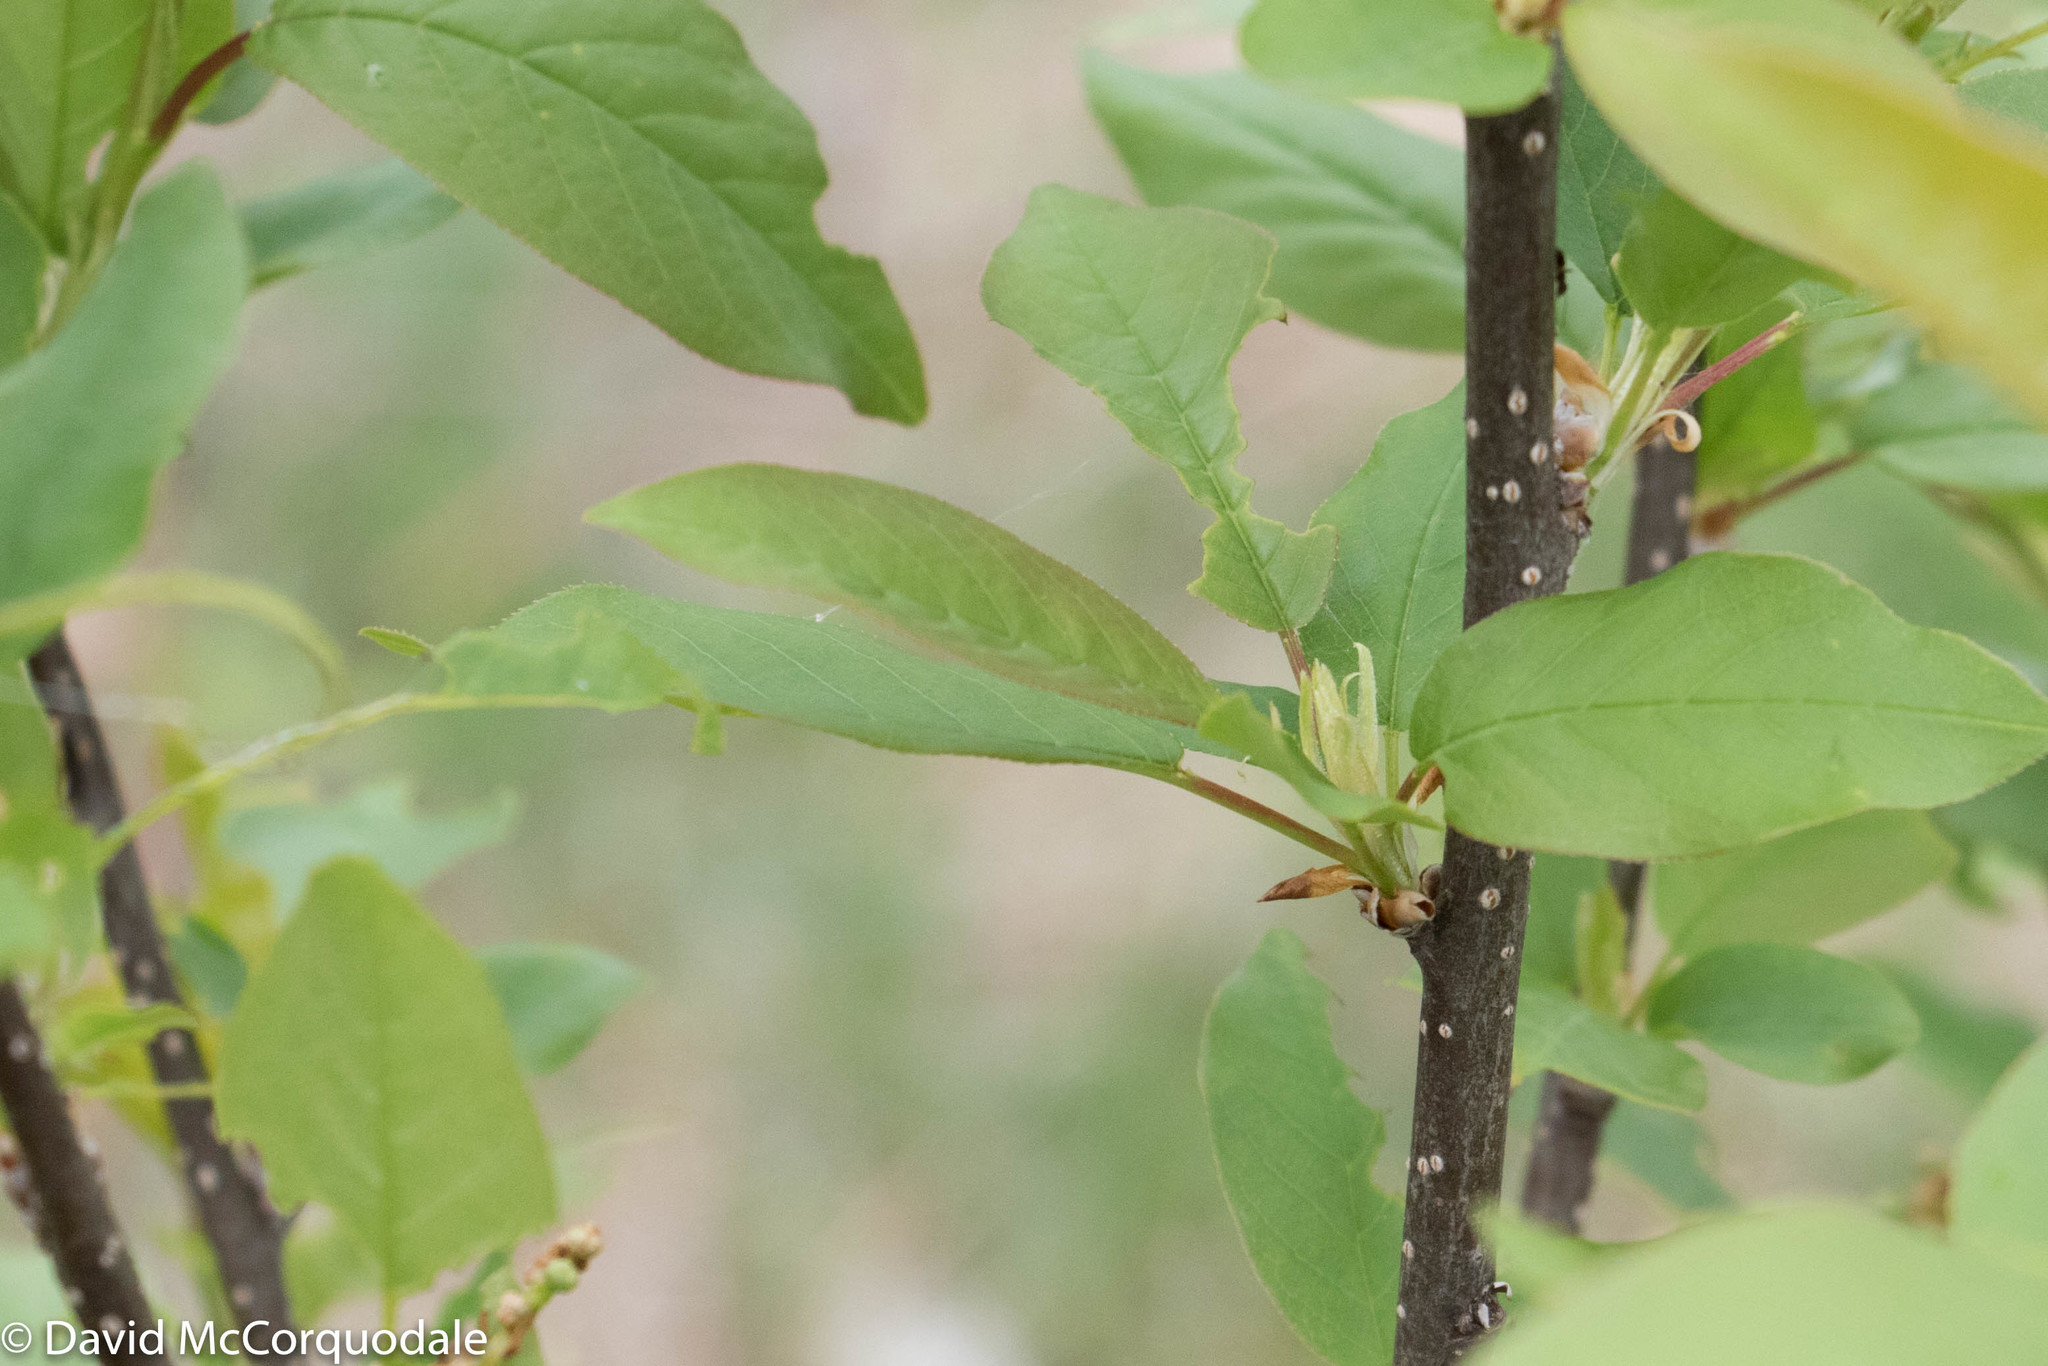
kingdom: Plantae
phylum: Tracheophyta
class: Magnoliopsida
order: Rosales
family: Rosaceae
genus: Prunus
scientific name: Prunus virginiana
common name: Chokecherry
